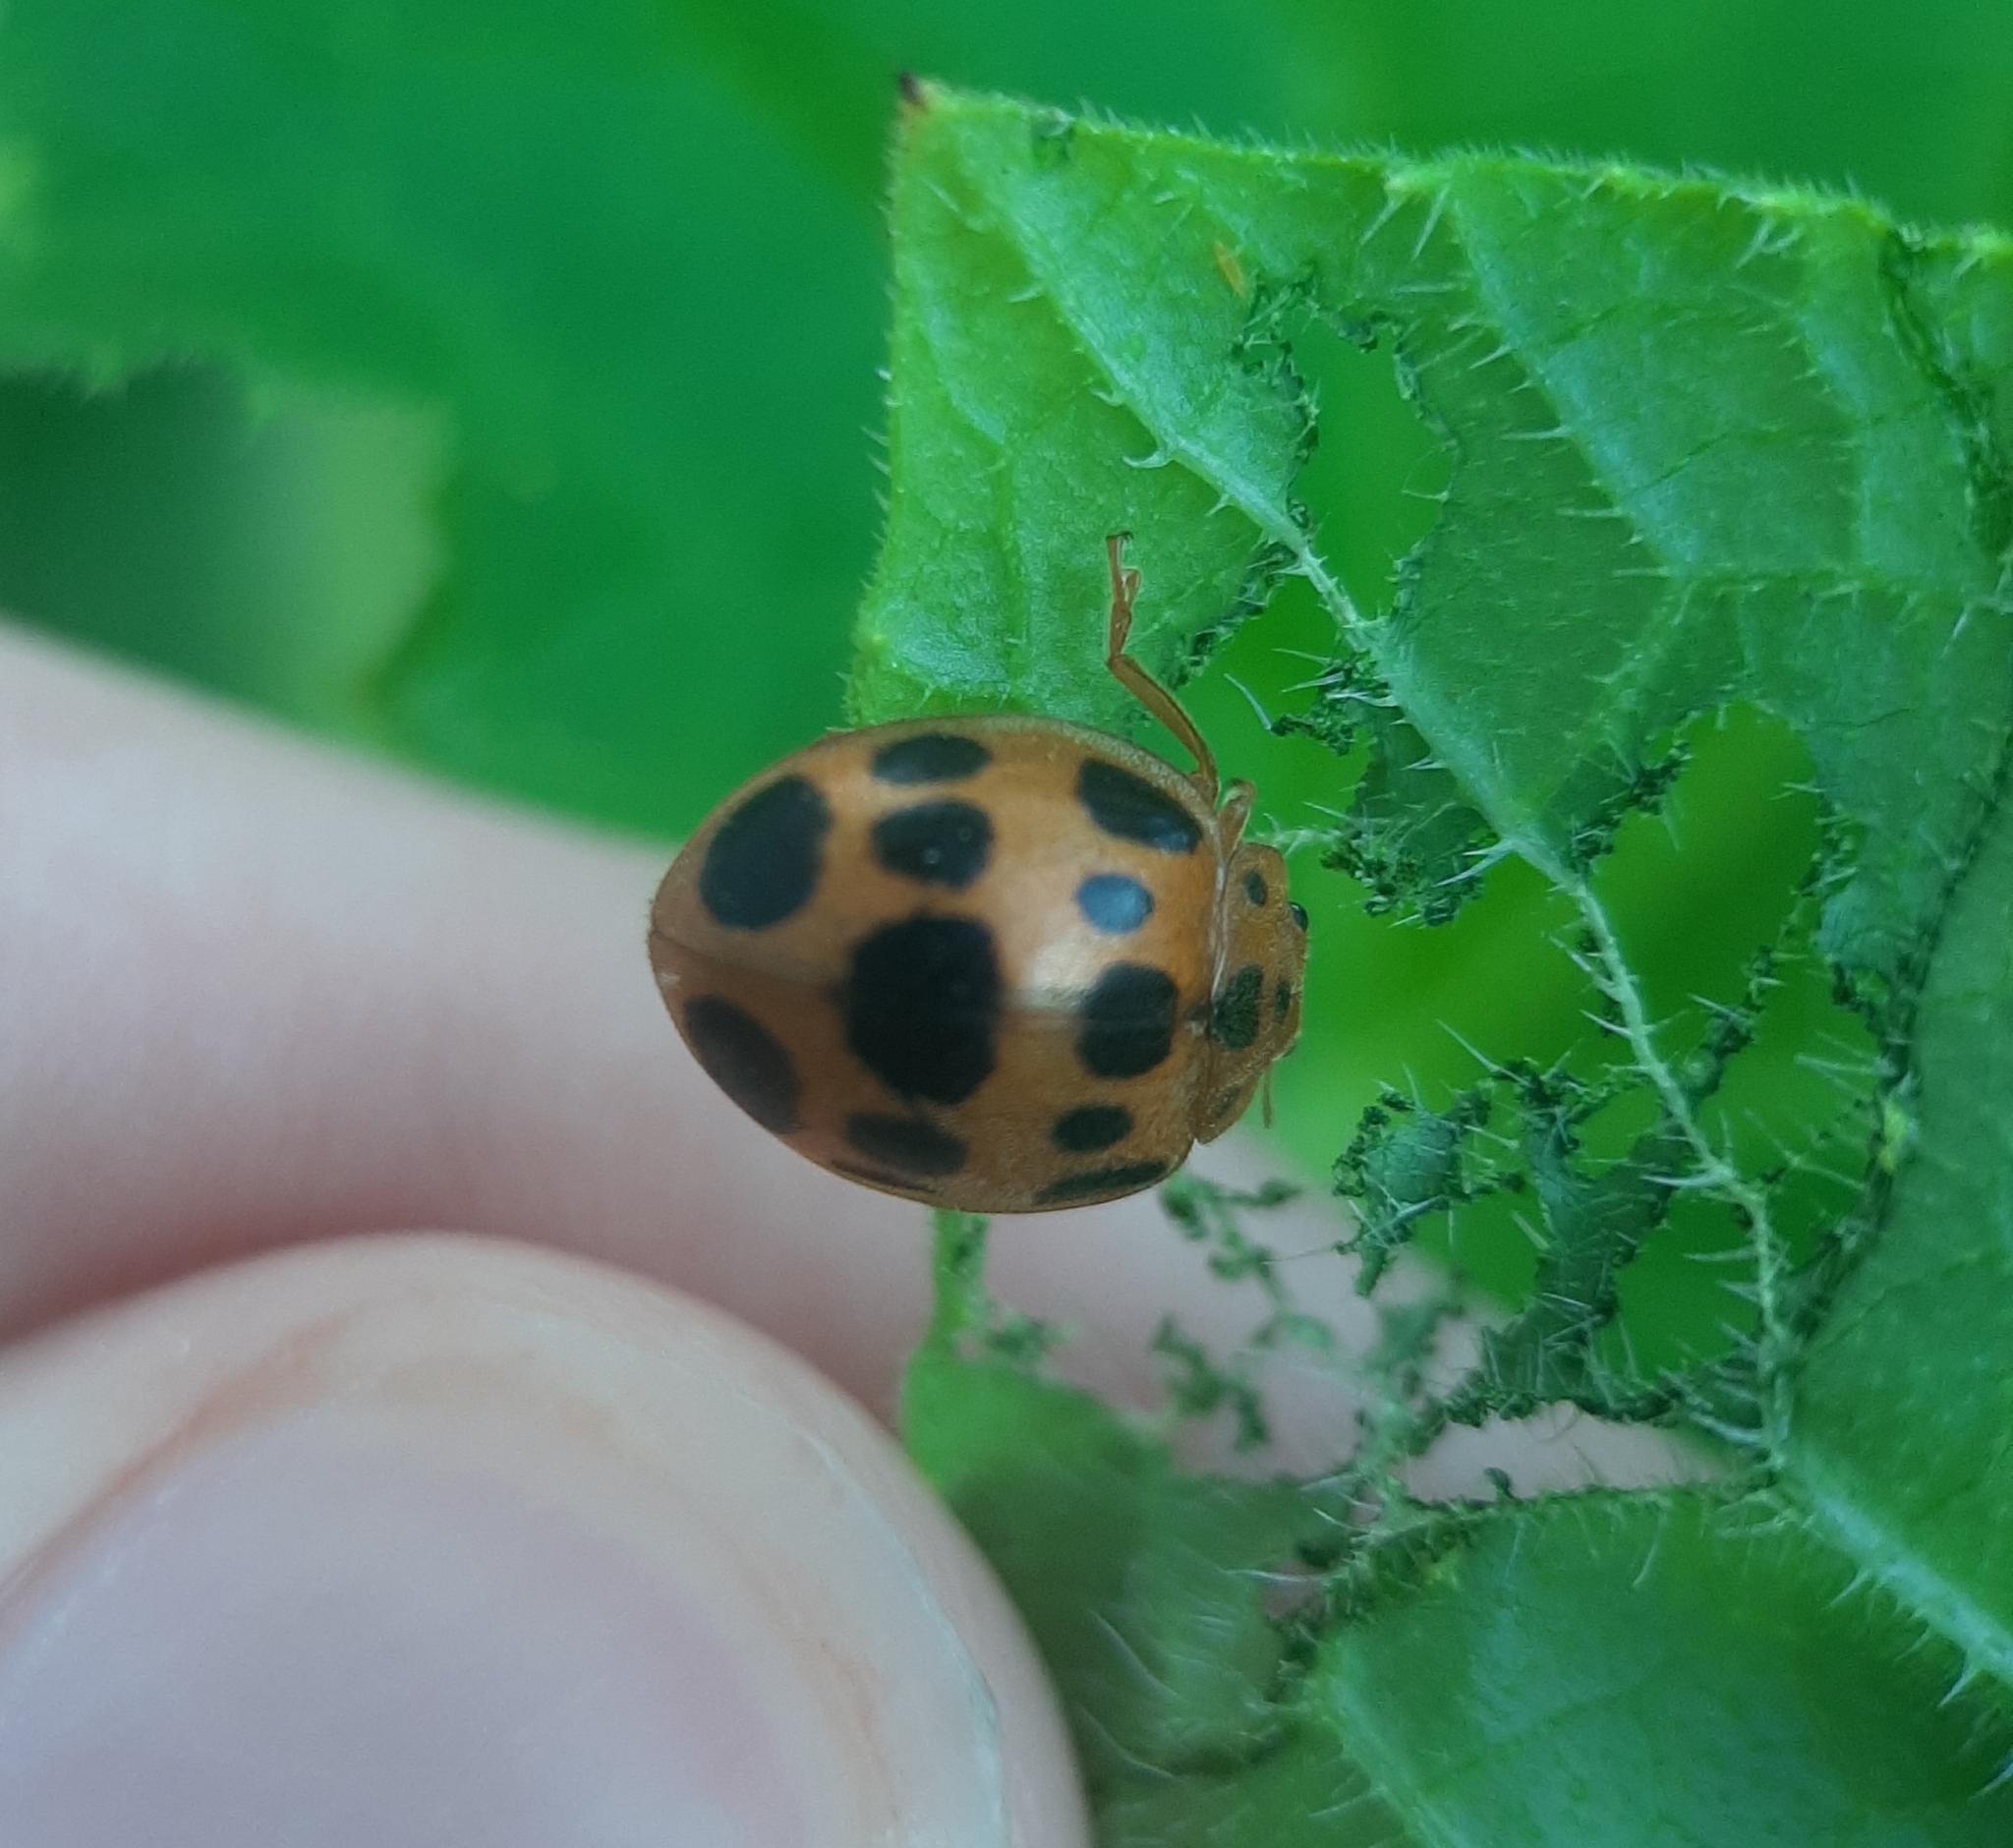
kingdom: Animalia
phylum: Arthropoda
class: Insecta
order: Coleoptera
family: Coccinellidae
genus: Epilachna
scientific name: Epilachna borealis
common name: Squash beetle
